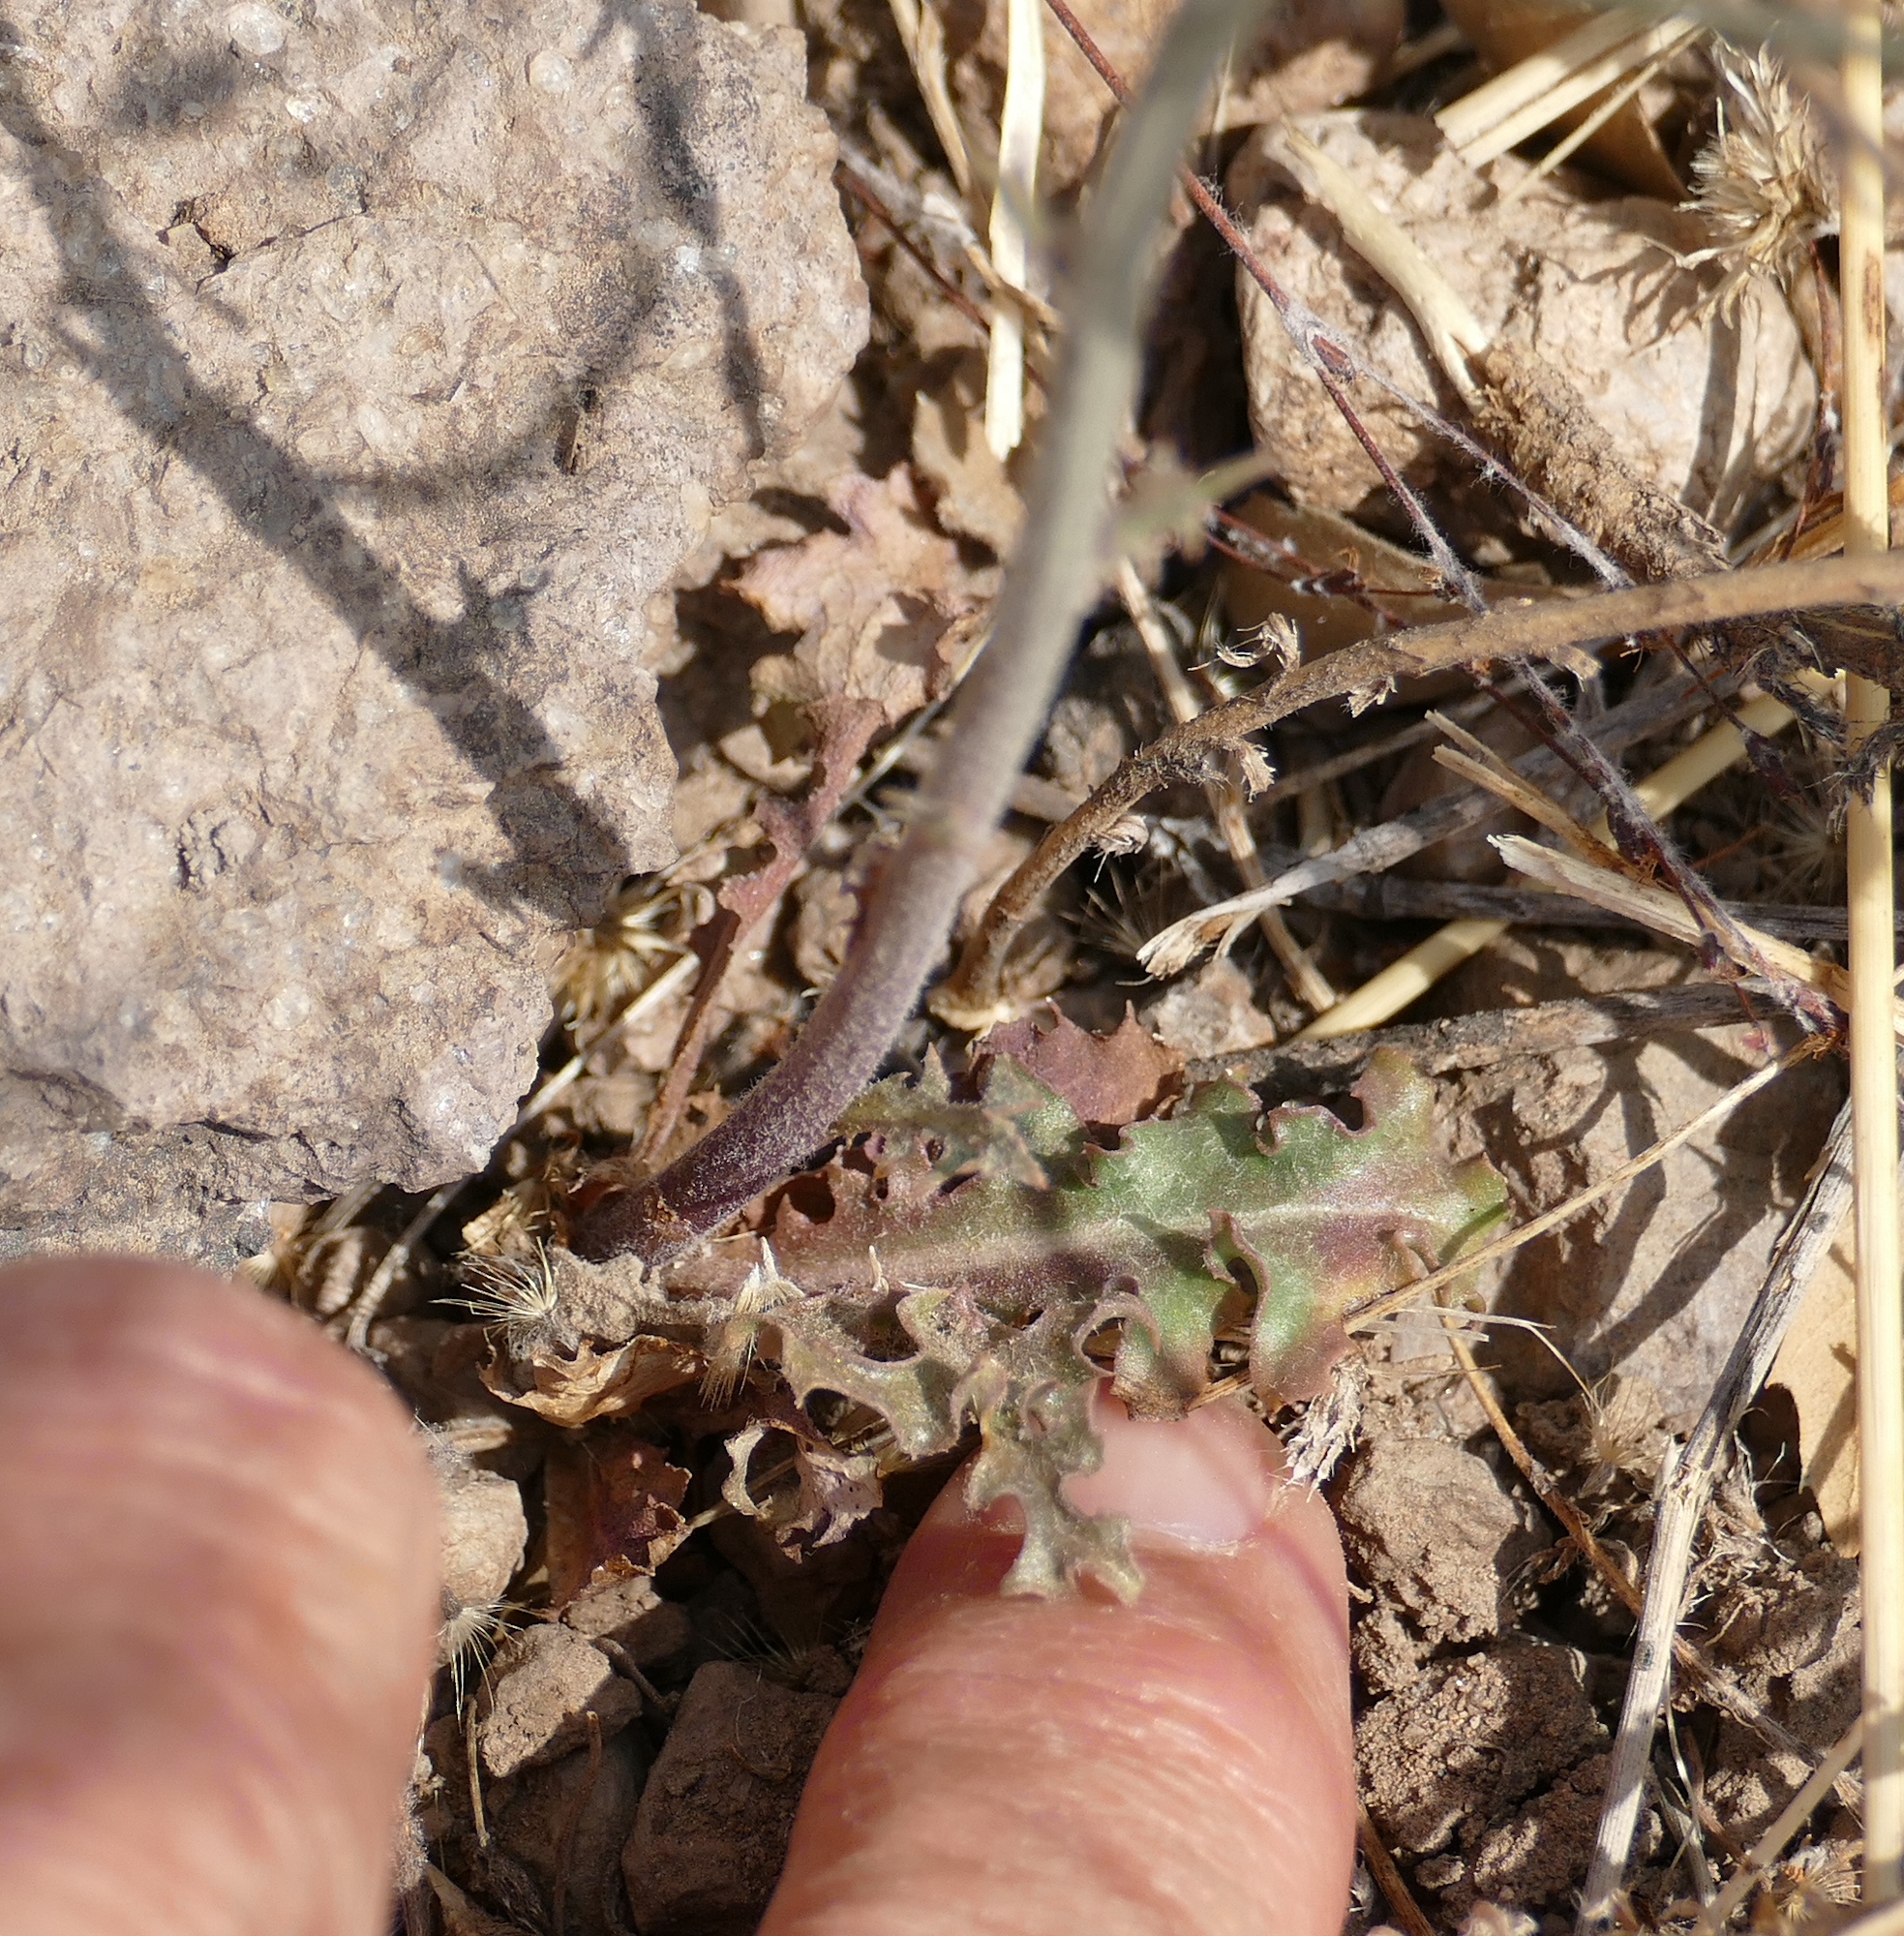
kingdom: Plantae
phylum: Tracheophyta
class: Magnoliopsida
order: Asterales
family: Asteraceae
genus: Stephanomeria
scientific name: Stephanomeria thurberi
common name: Thurber's wire-lettuce
